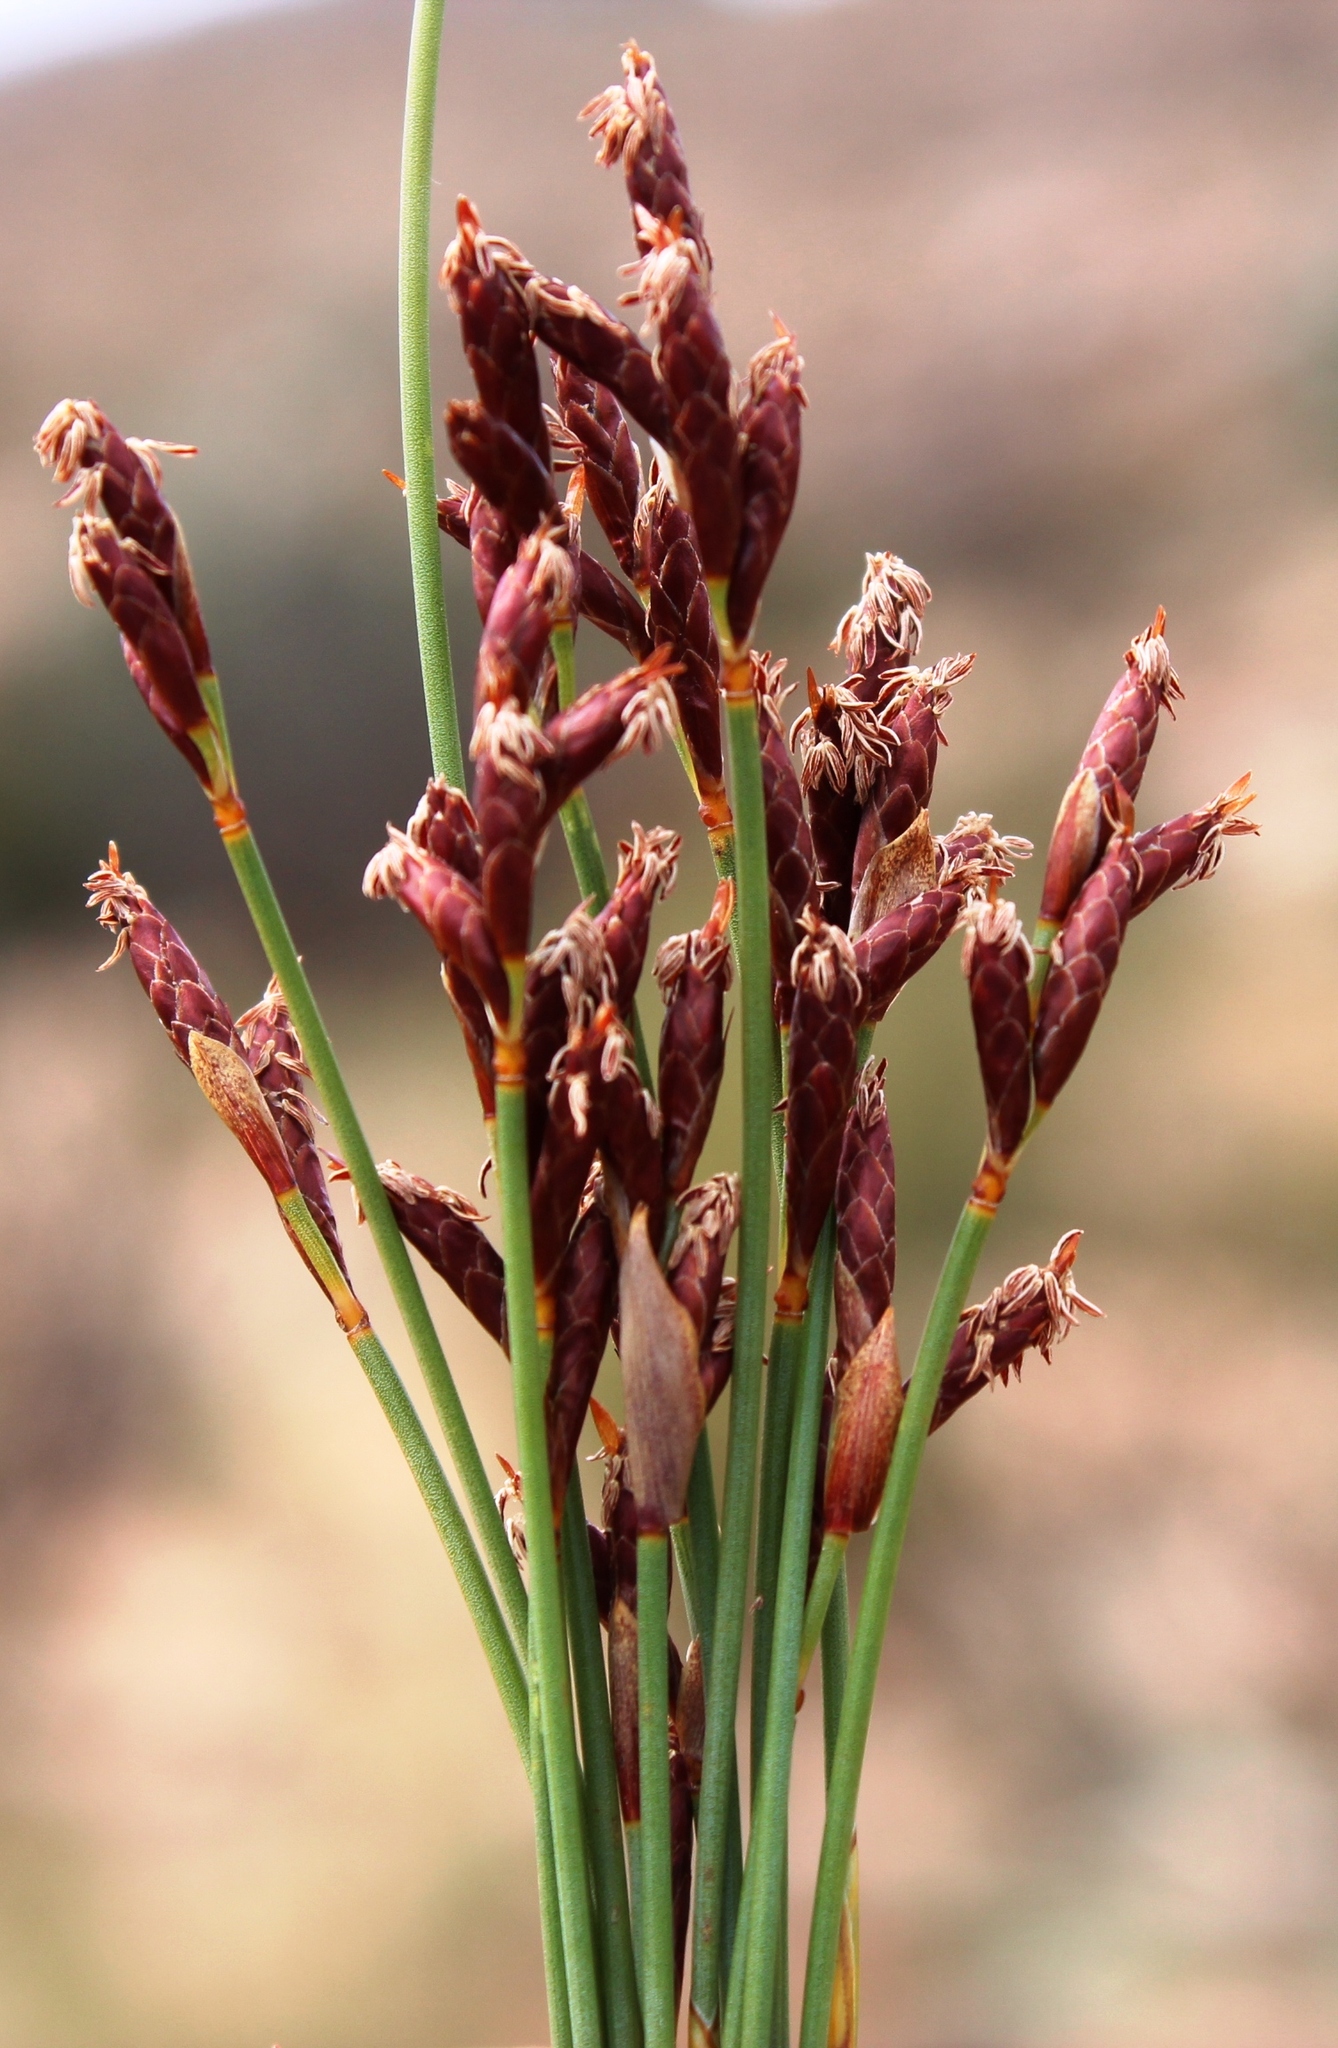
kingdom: Plantae
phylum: Tracheophyta
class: Liliopsida
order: Poales
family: Restionaceae
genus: Hypodiscus
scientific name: Hypodiscus striatus
